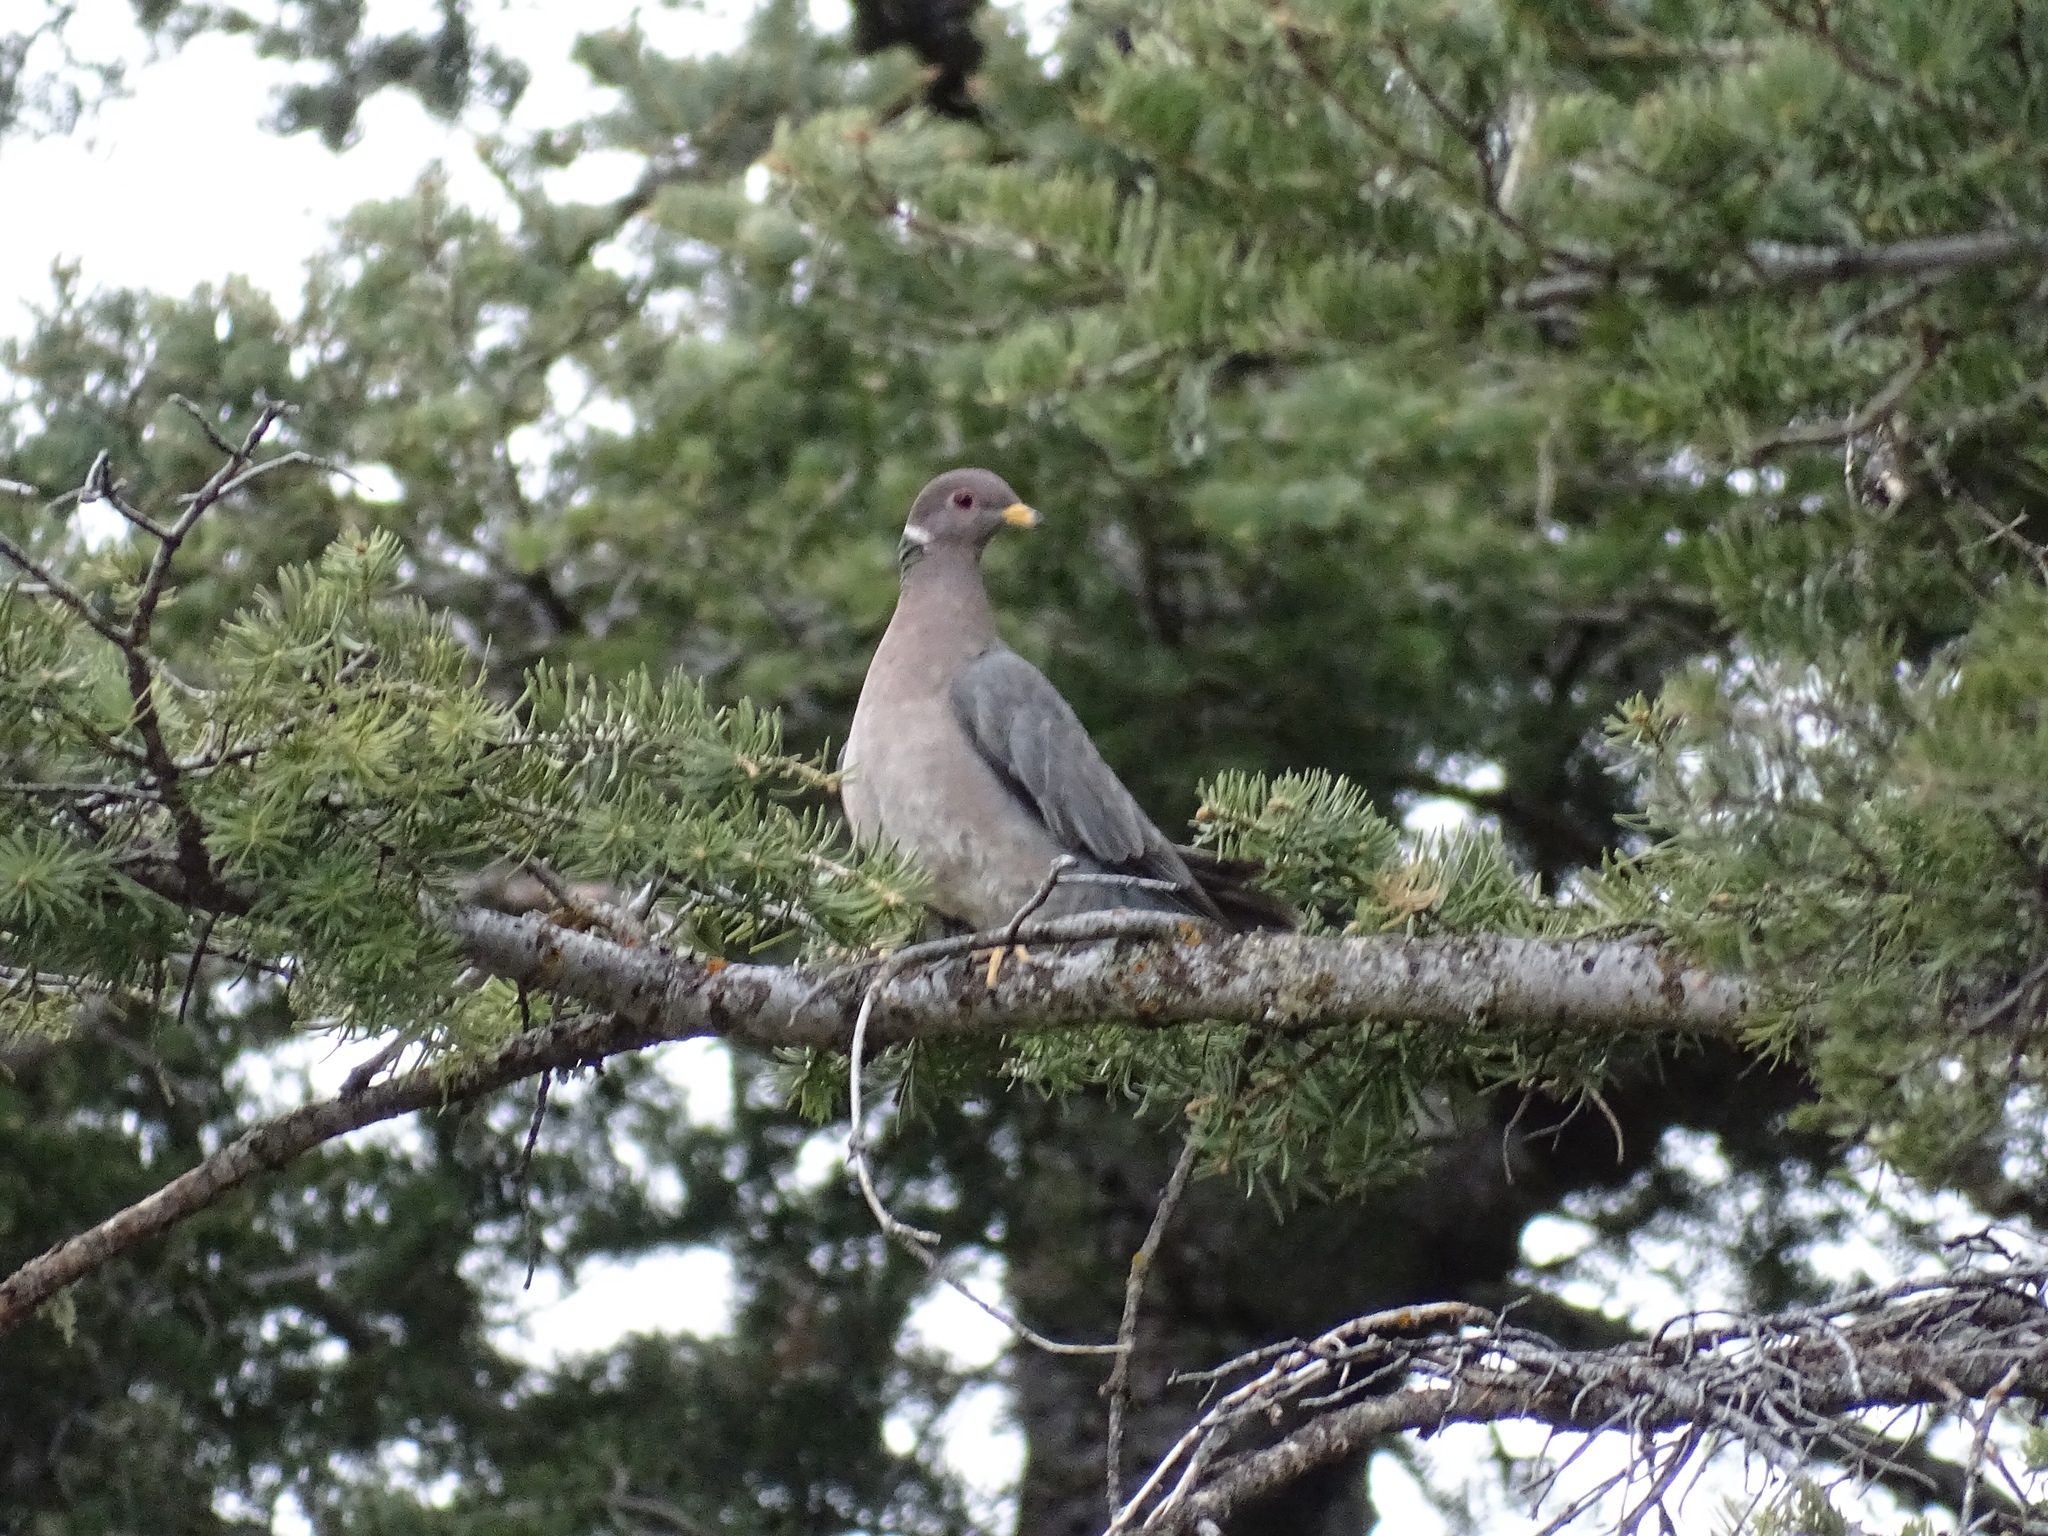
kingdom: Animalia
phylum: Chordata
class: Aves
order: Columbiformes
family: Columbidae
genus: Patagioenas
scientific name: Patagioenas fasciata
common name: Band-tailed pigeon
